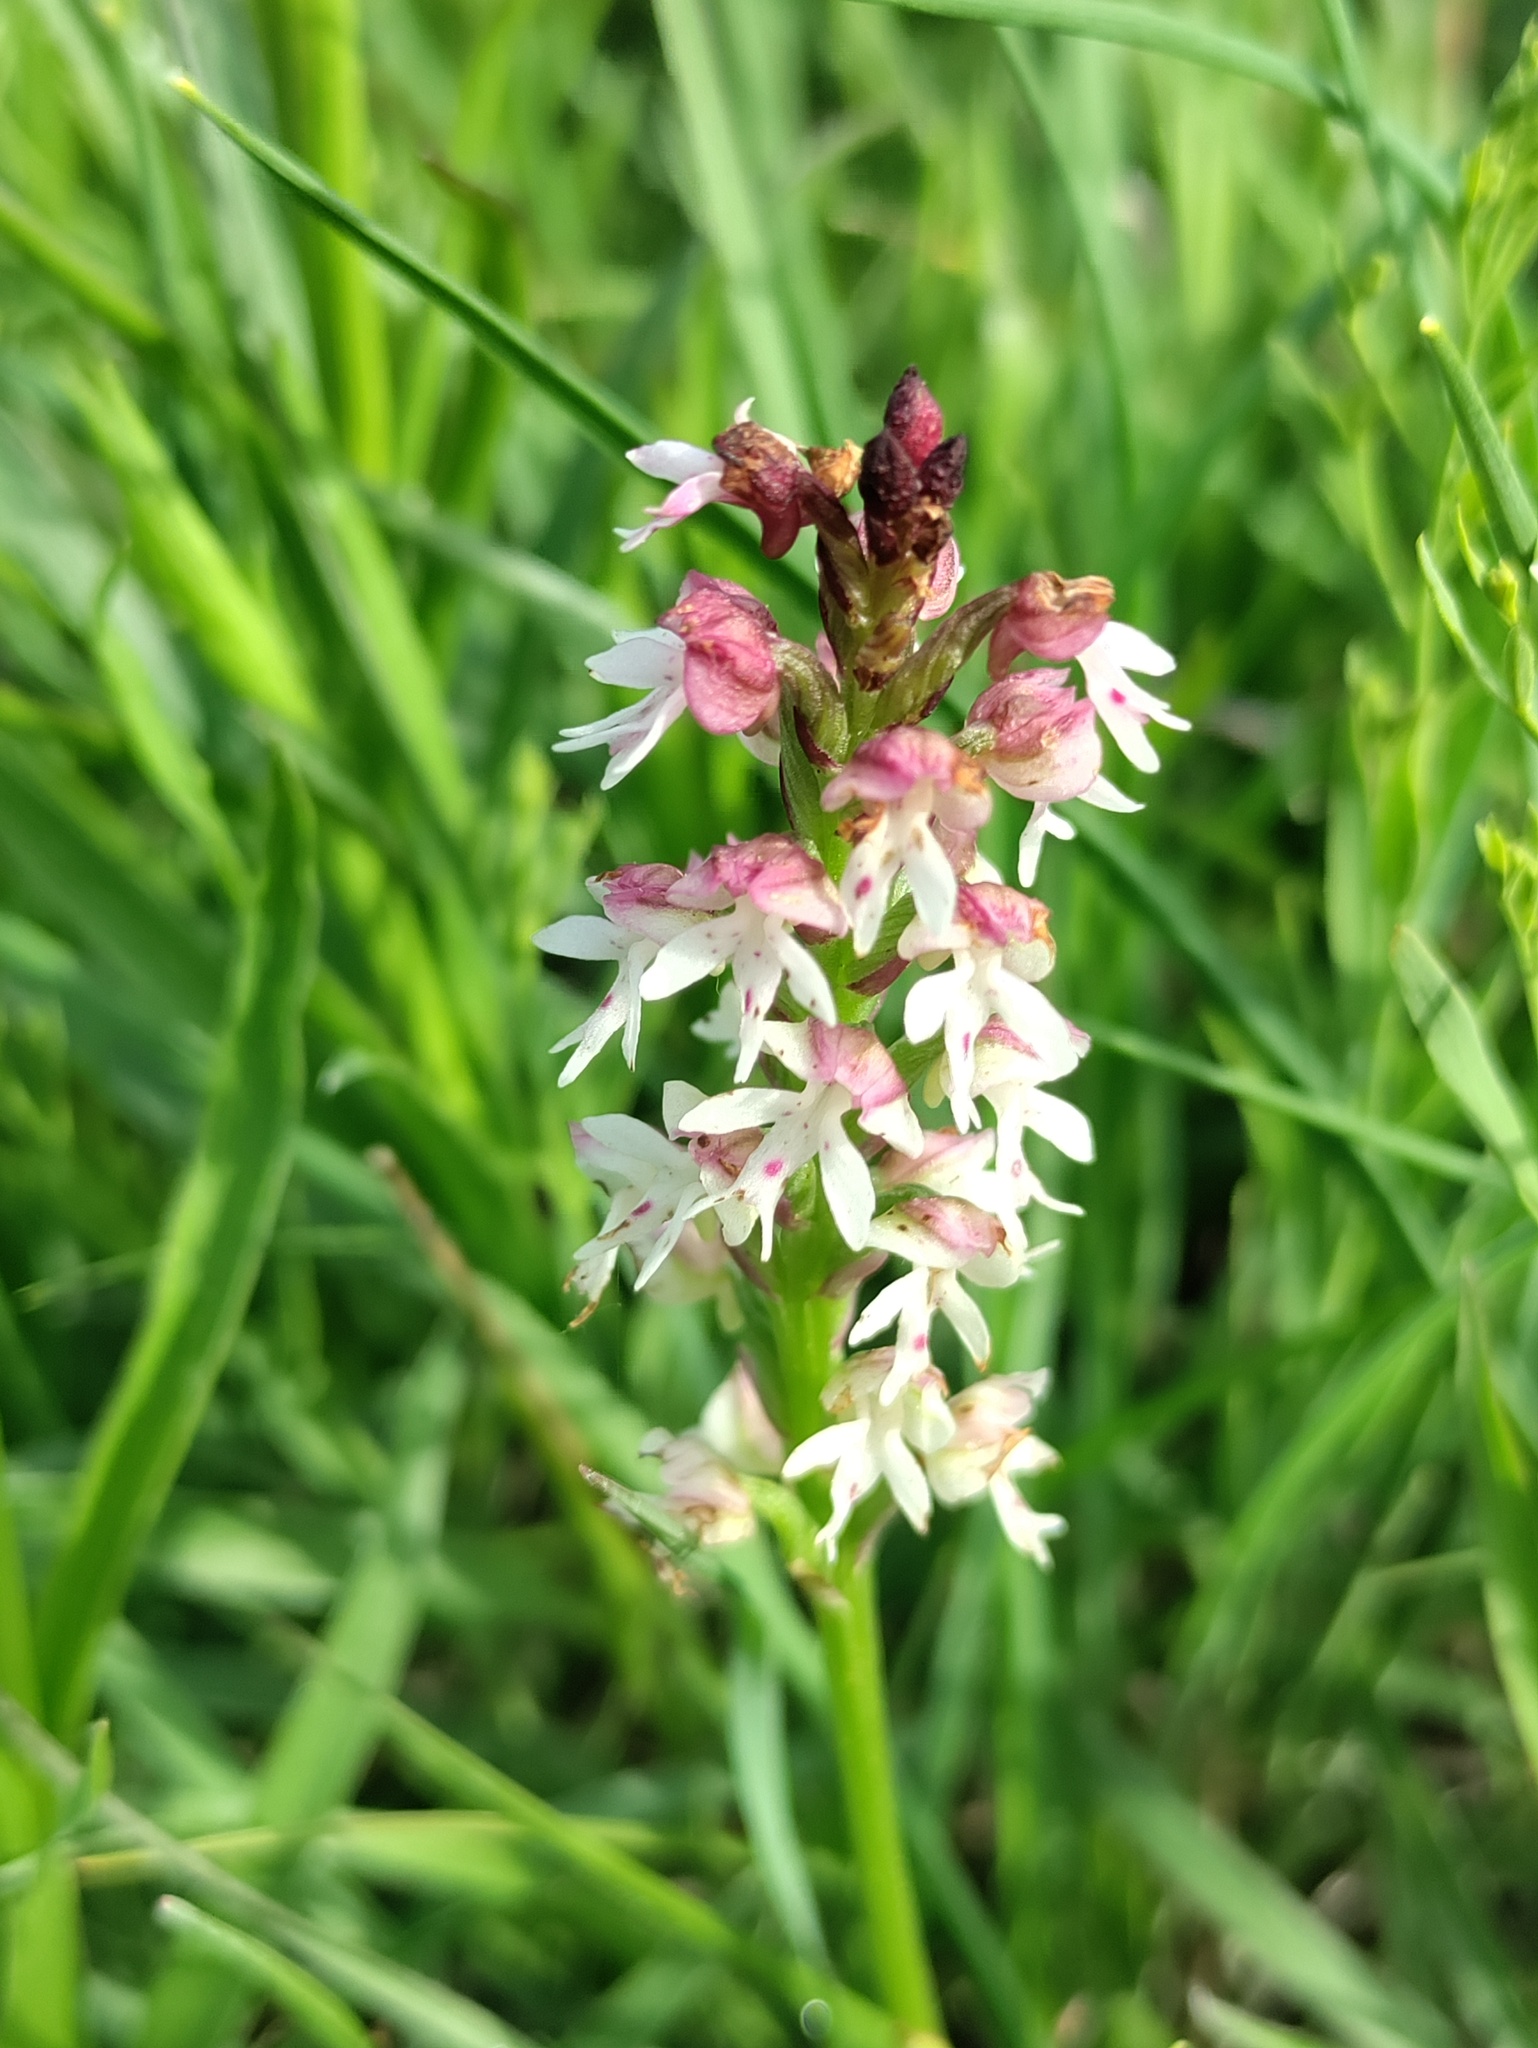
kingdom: Plantae
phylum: Tracheophyta
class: Liliopsida
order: Asparagales
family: Orchidaceae
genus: Neotinea
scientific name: Neotinea ustulata
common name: Burnt orchid
